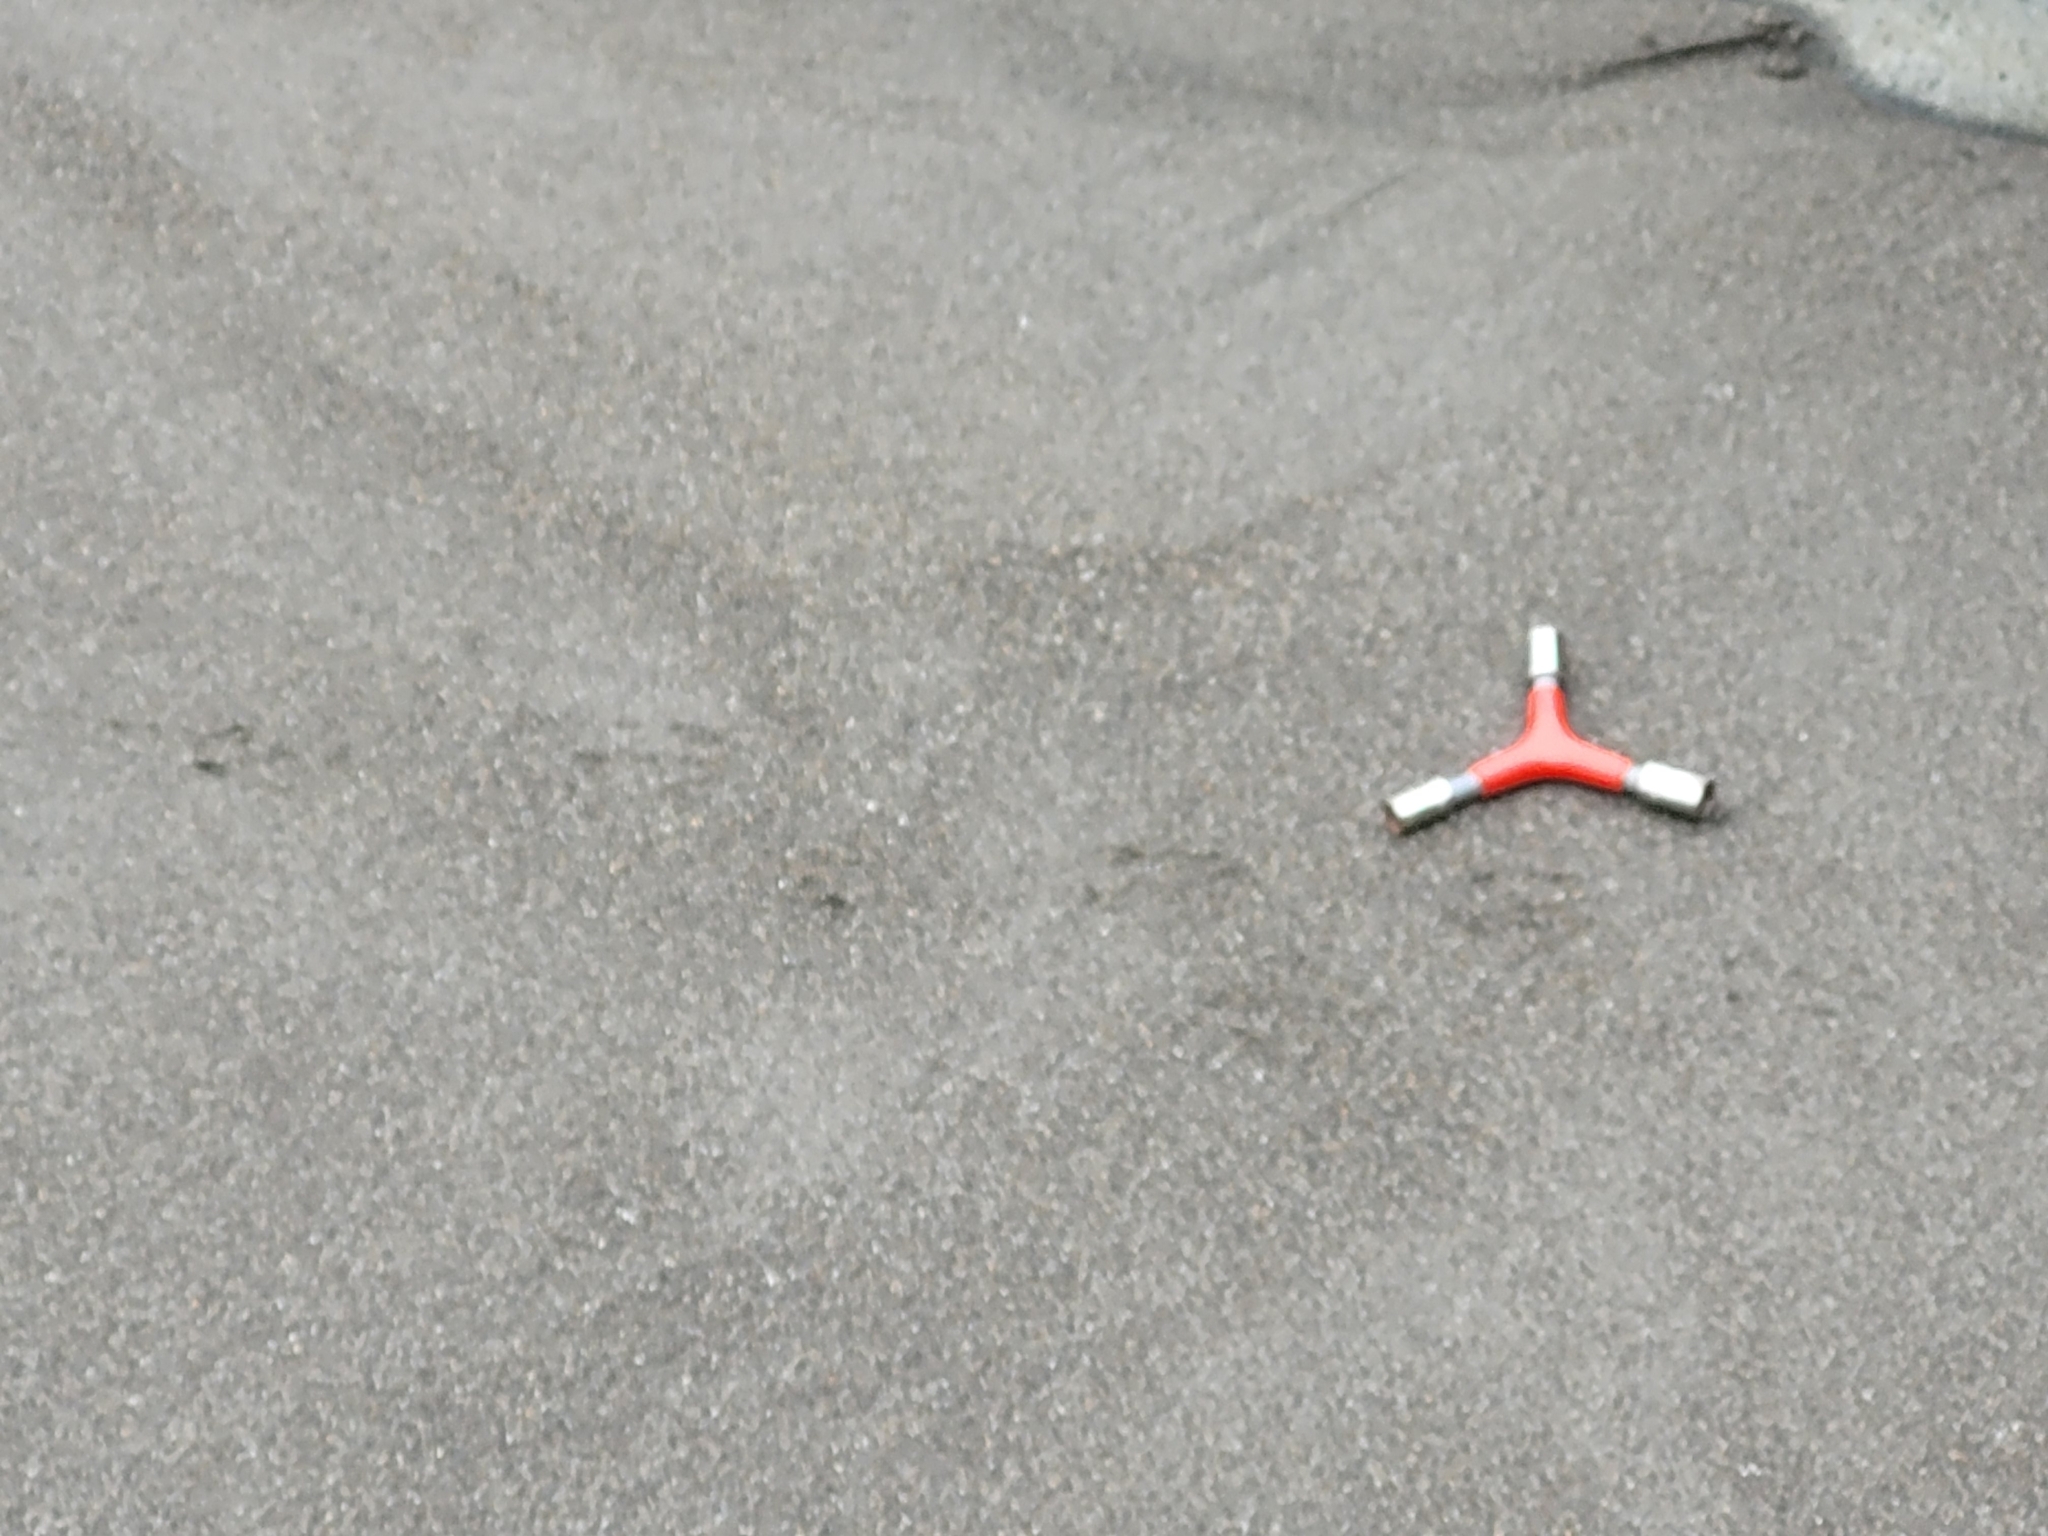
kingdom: Animalia
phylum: Chordata
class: Aves
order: Sphenisciformes
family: Spheniscidae
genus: Eudyptula
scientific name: Eudyptula minor
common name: Little penguin
